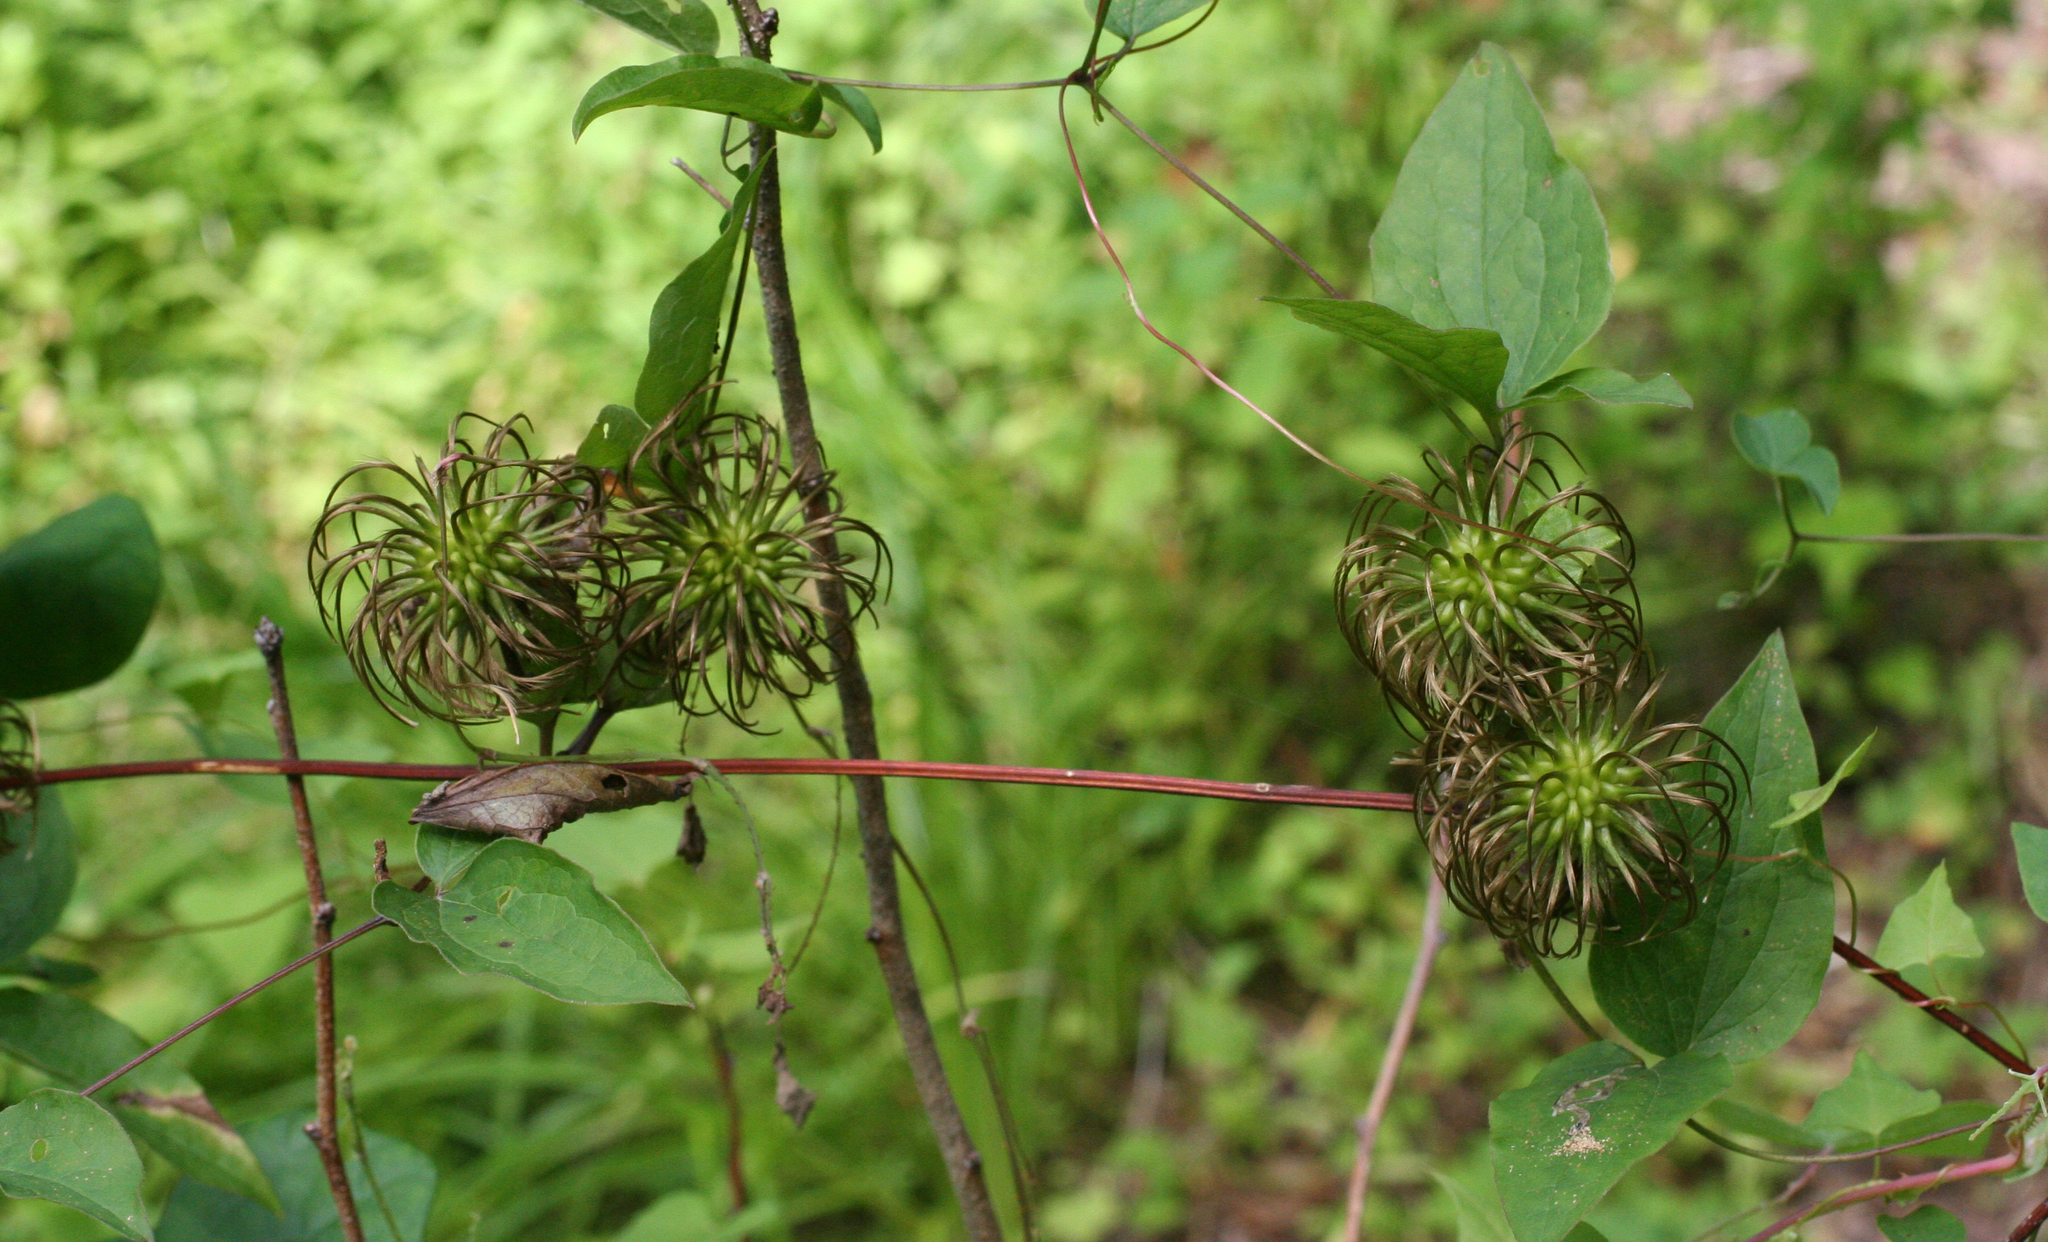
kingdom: Plantae
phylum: Tracheophyta
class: Magnoliopsida
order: Ranunculales
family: Ranunculaceae
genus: Clematis
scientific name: Clematis fusca
